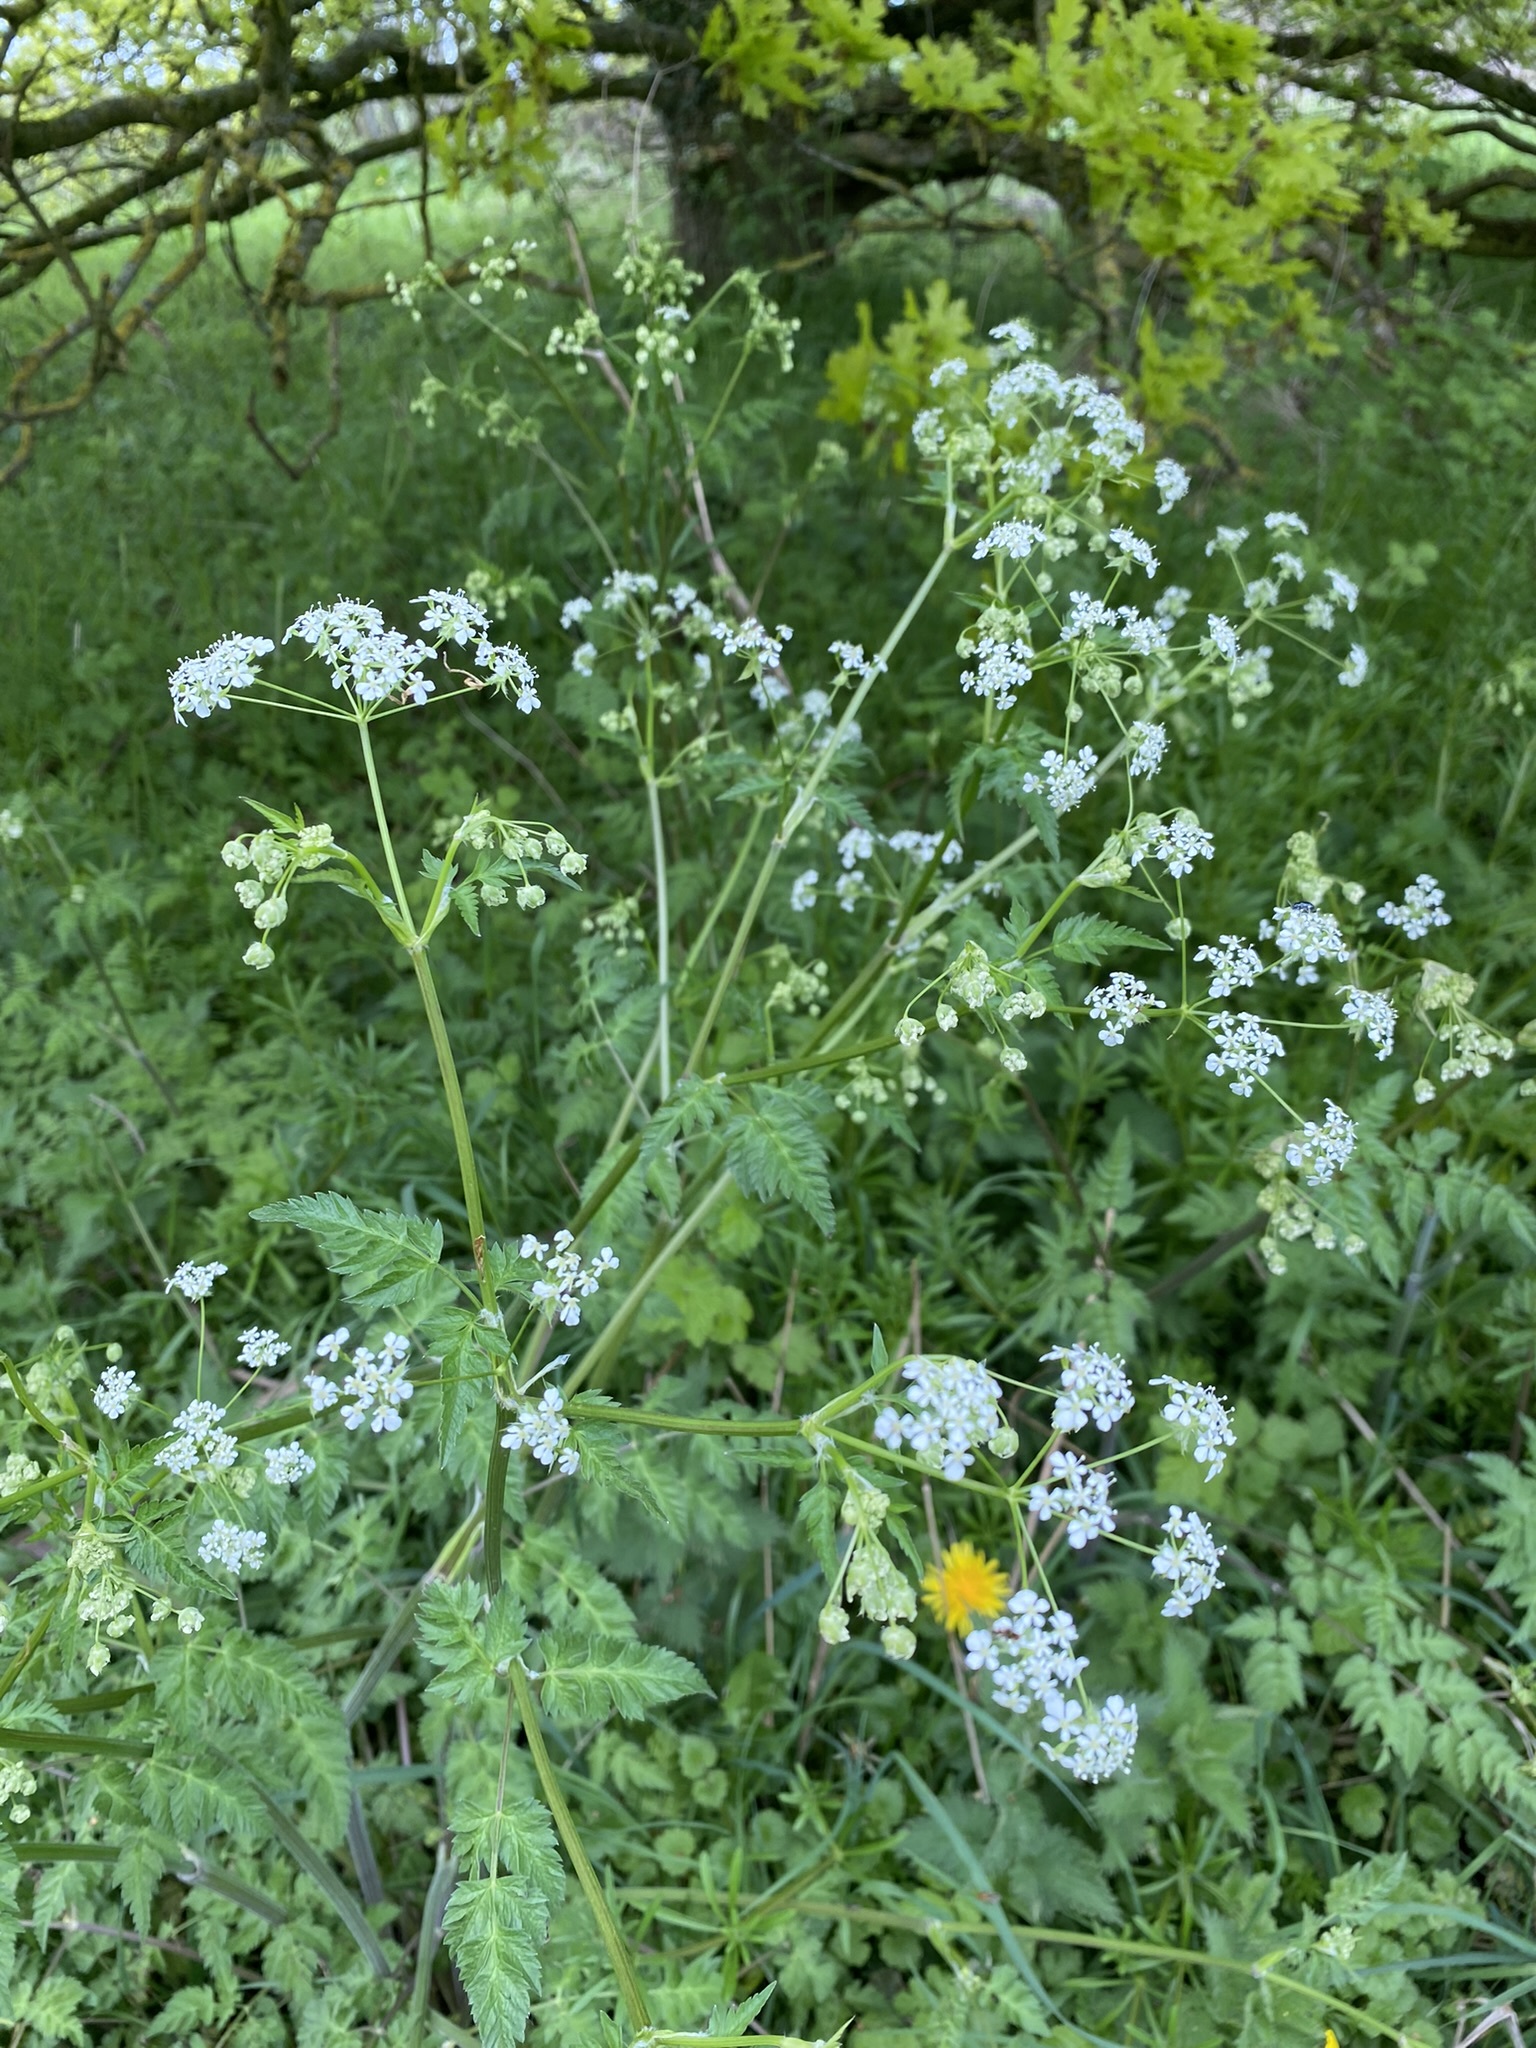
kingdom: Plantae
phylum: Tracheophyta
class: Magnoliopsida
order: Apiales
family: Apiaceae
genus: Anthriscus
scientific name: Anthriscus sylvestris
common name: Cow parsley
